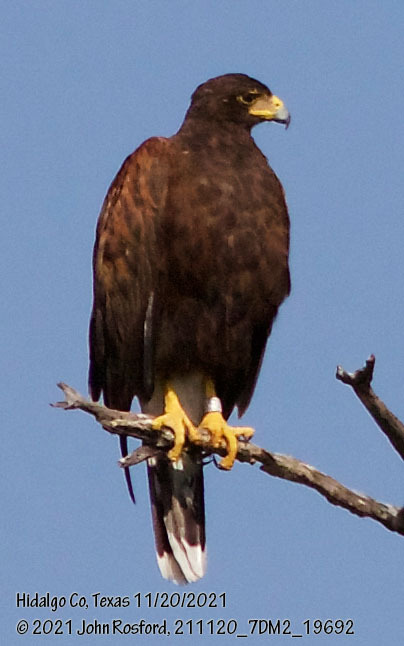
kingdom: Animalia
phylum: Chordata
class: Aves
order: Accipitriformes
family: Accipitridae
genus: Parabuteo
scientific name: Parabuteo unicinctus
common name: Harris's hawk
